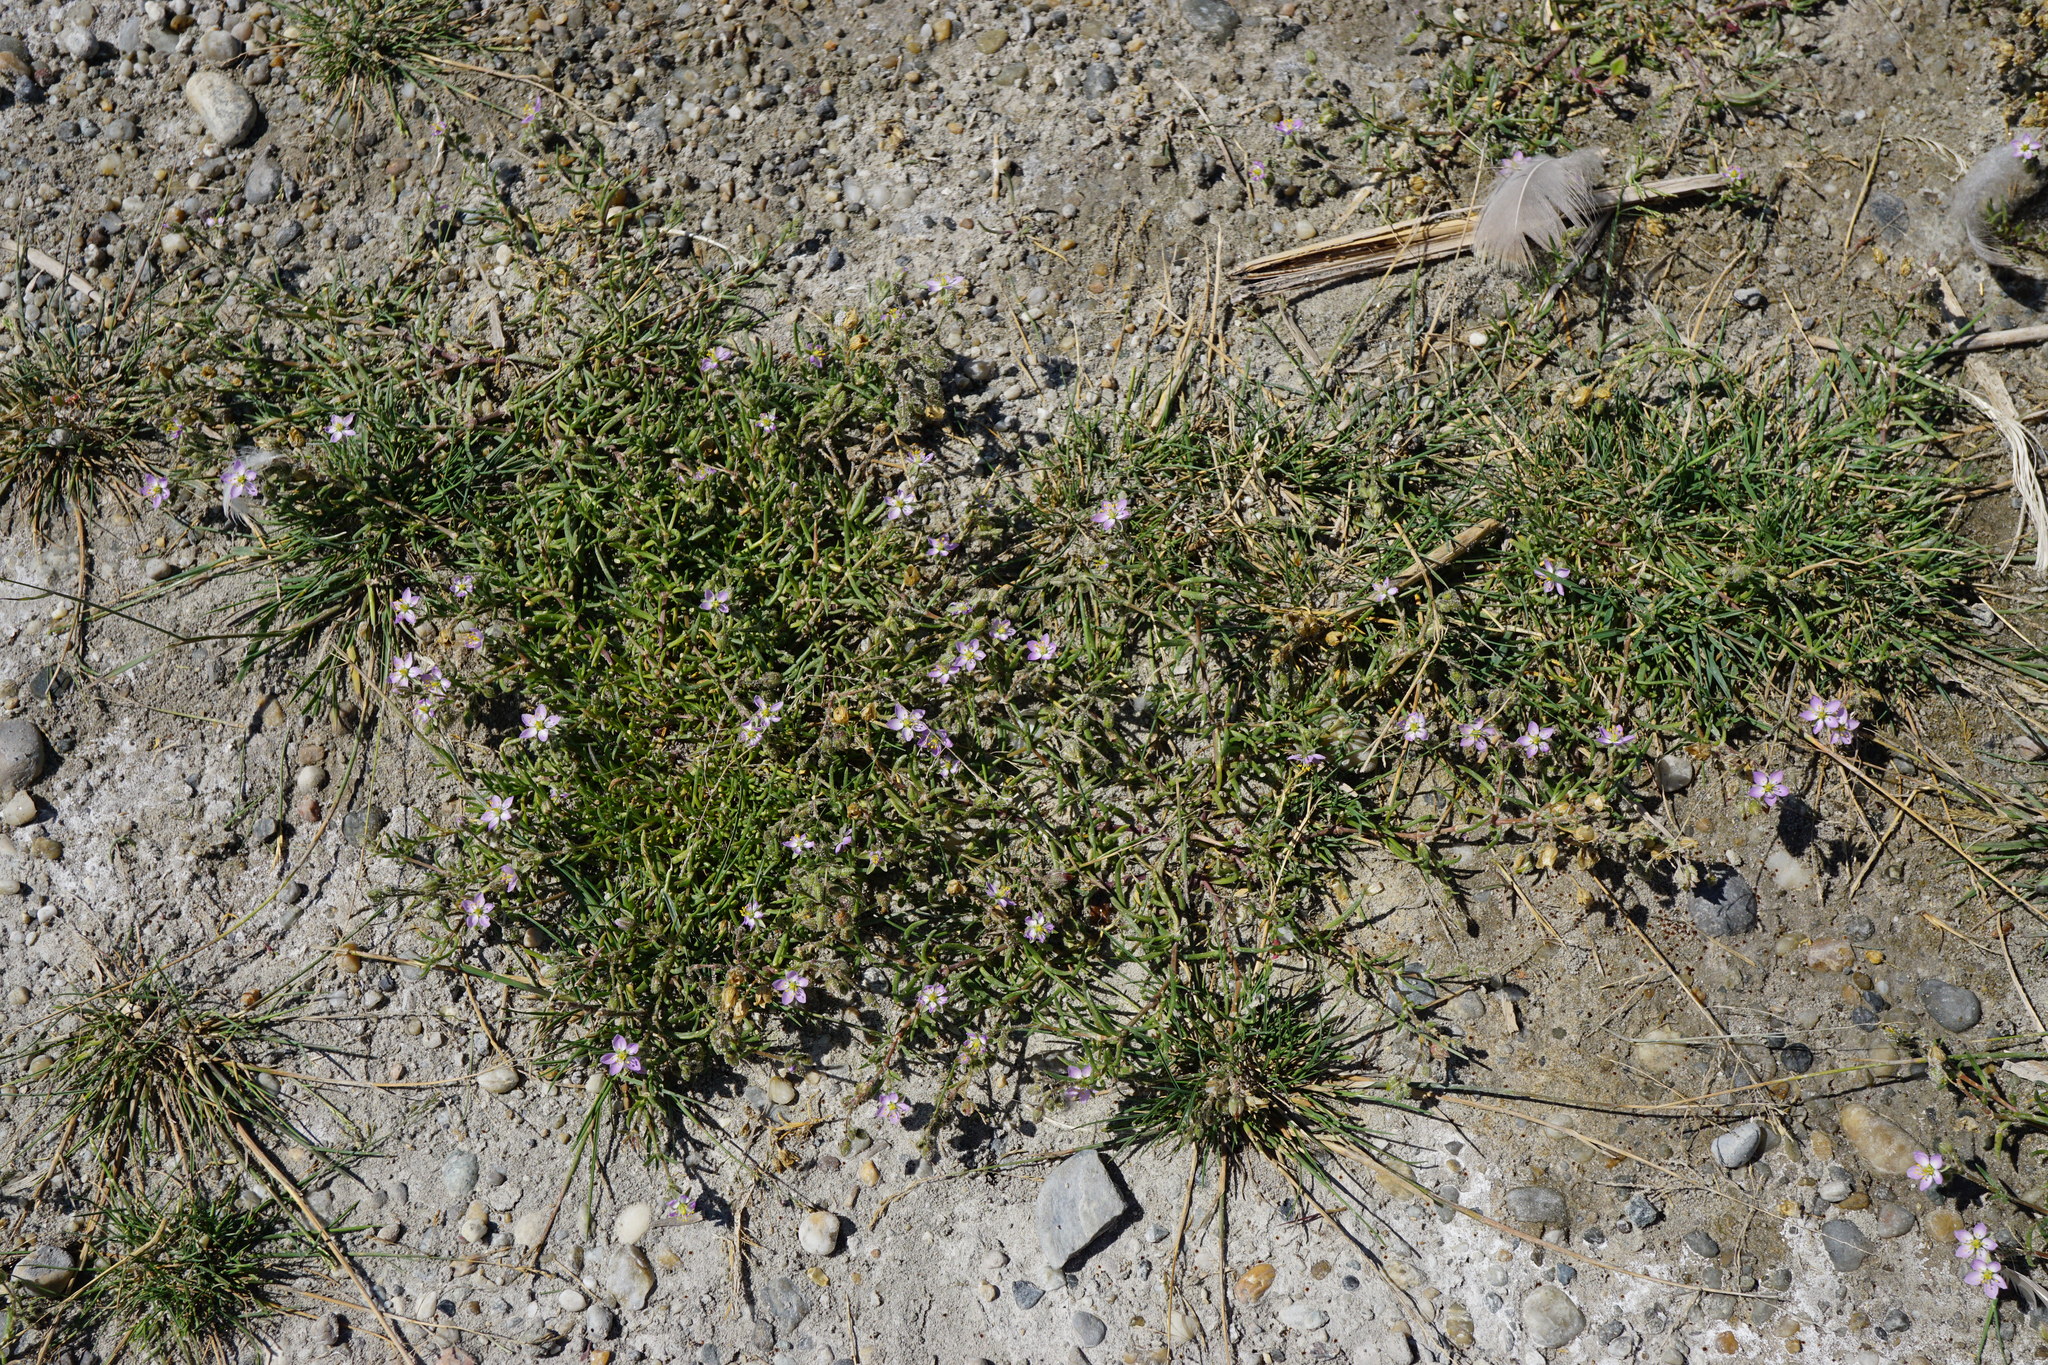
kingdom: Plantae
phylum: Tracheophyta
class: Magnoliopsida
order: Caryophyllales
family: Caryophyllaceae
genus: Spergularia
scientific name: Spergularia media
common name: Greater sea-spurrey
